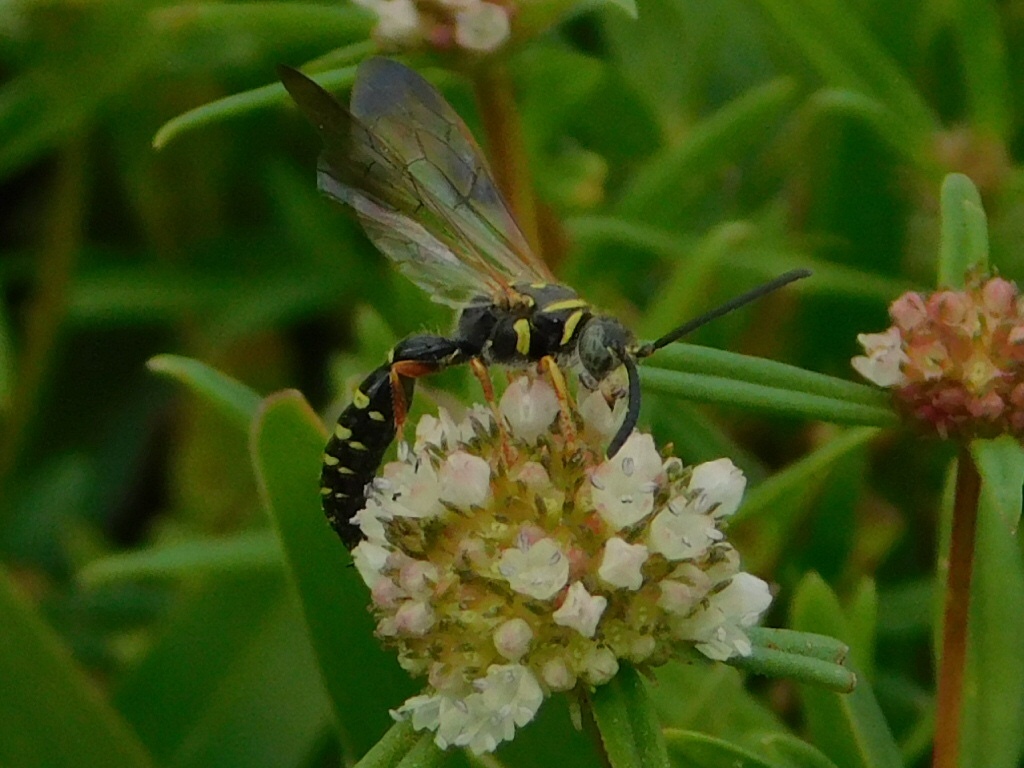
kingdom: Animalia
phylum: Arthropoda
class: Insecta
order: Hymenoptera
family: Tiphiidae
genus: Myzinum
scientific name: Myzinum dubiosum
